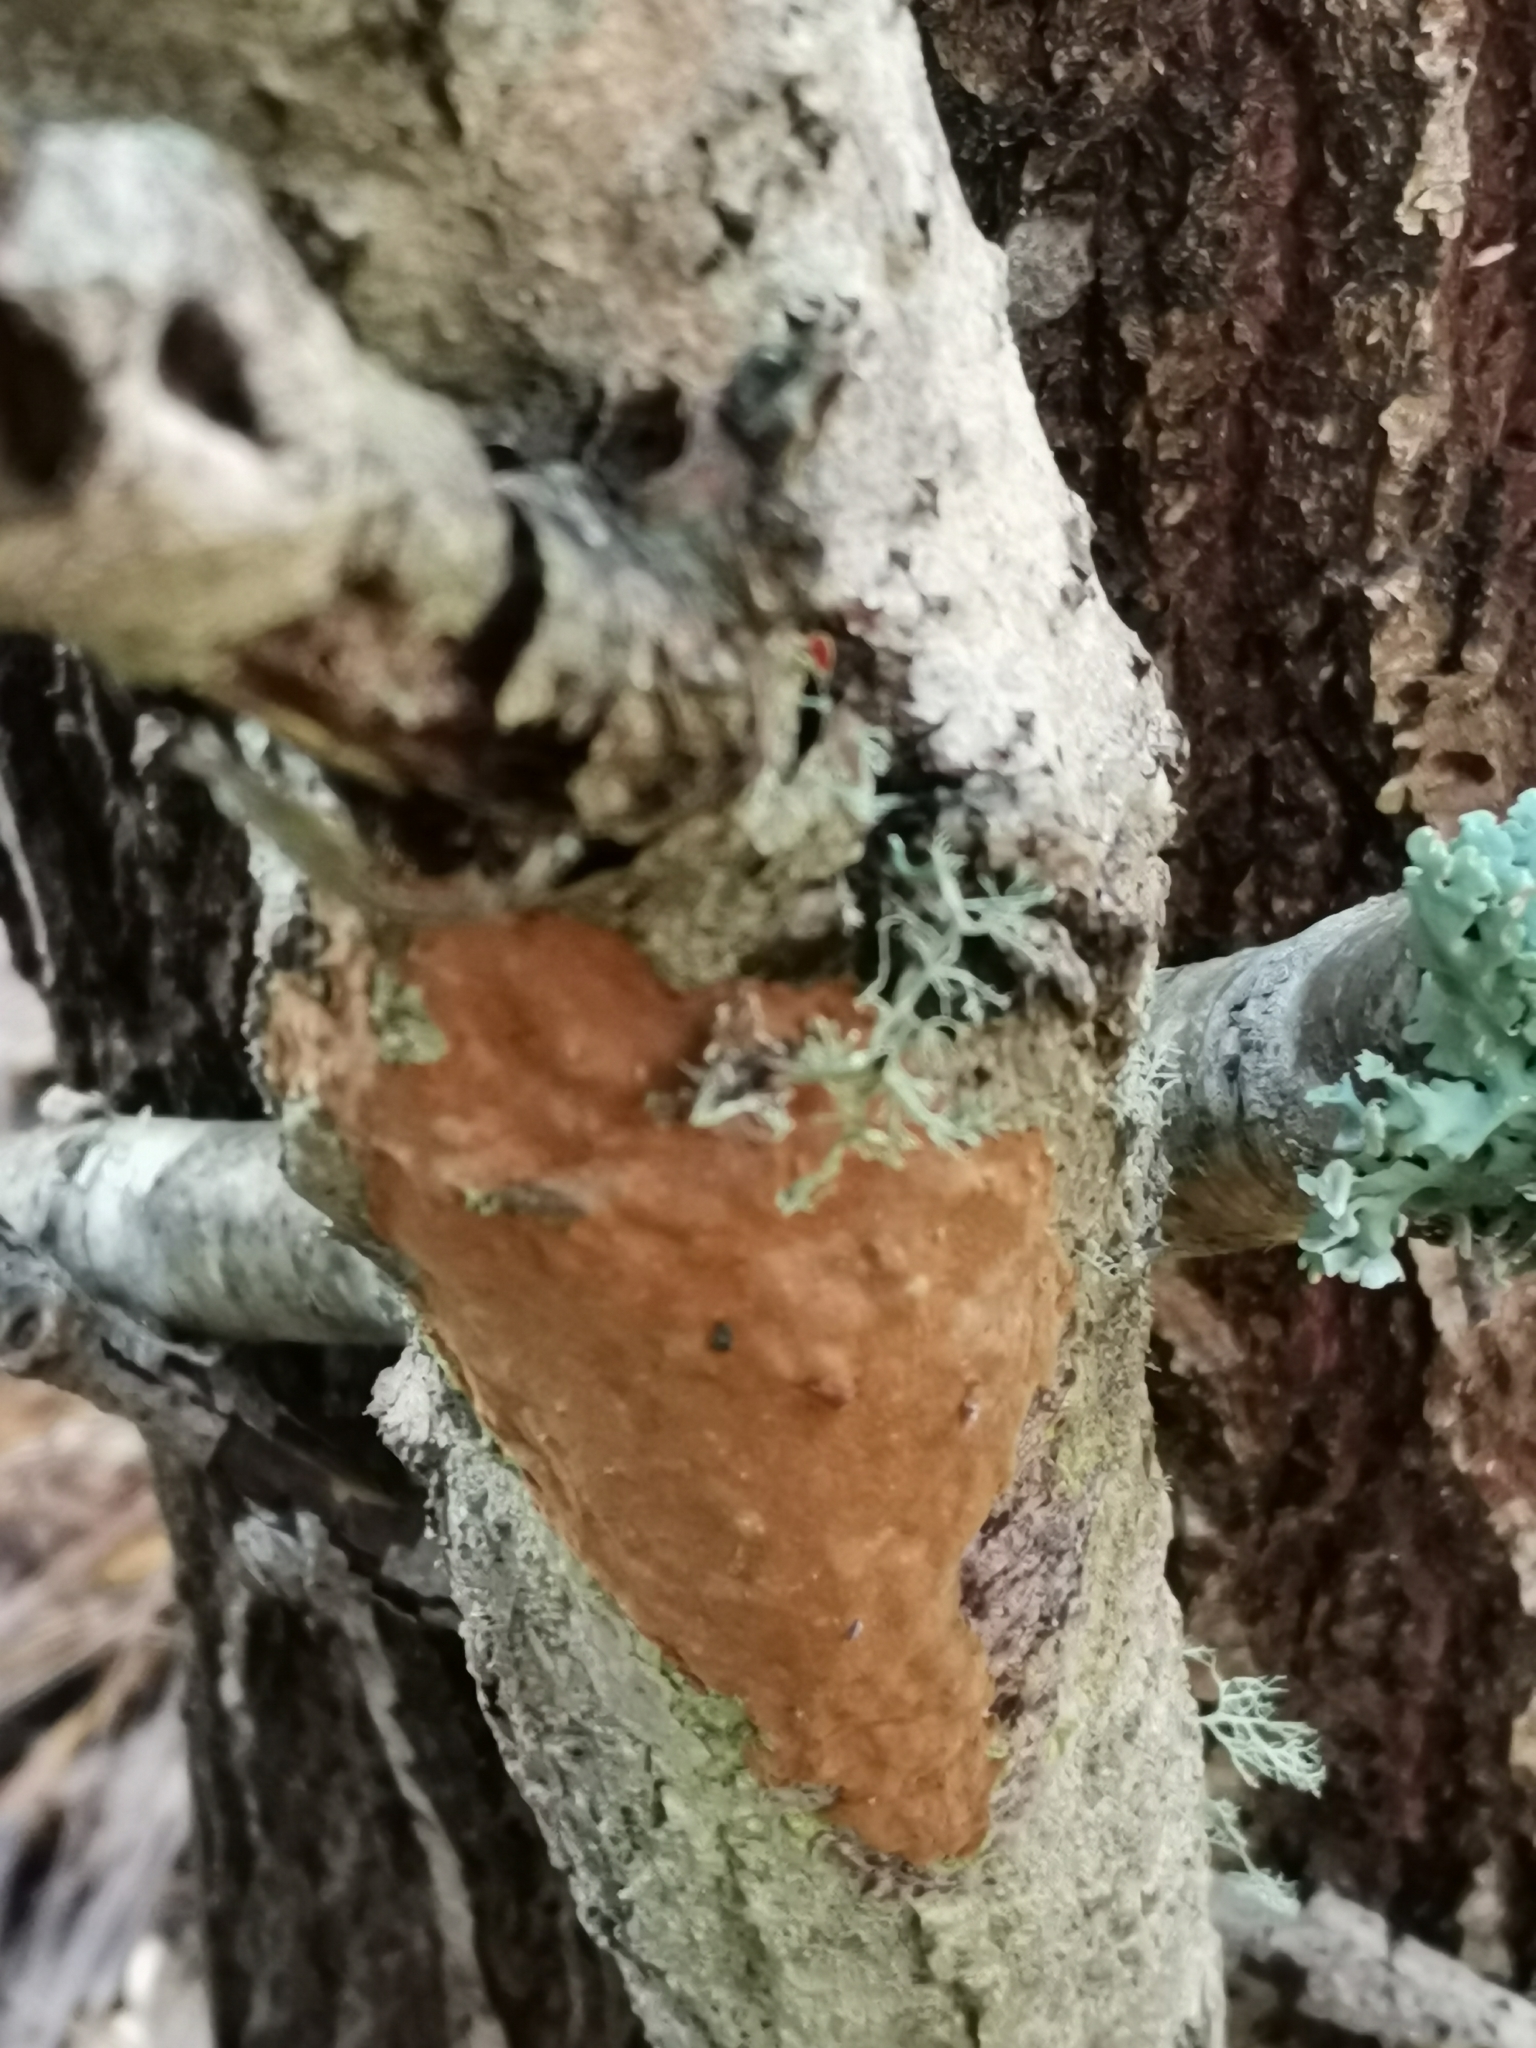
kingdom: Fungi
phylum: Basidiomycota
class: Agaricomycetes
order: Hymenochaetales
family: Hymenochaetaceae
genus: Fomitiporia
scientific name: Fomitiporia punctata
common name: Elbowpatch crust
